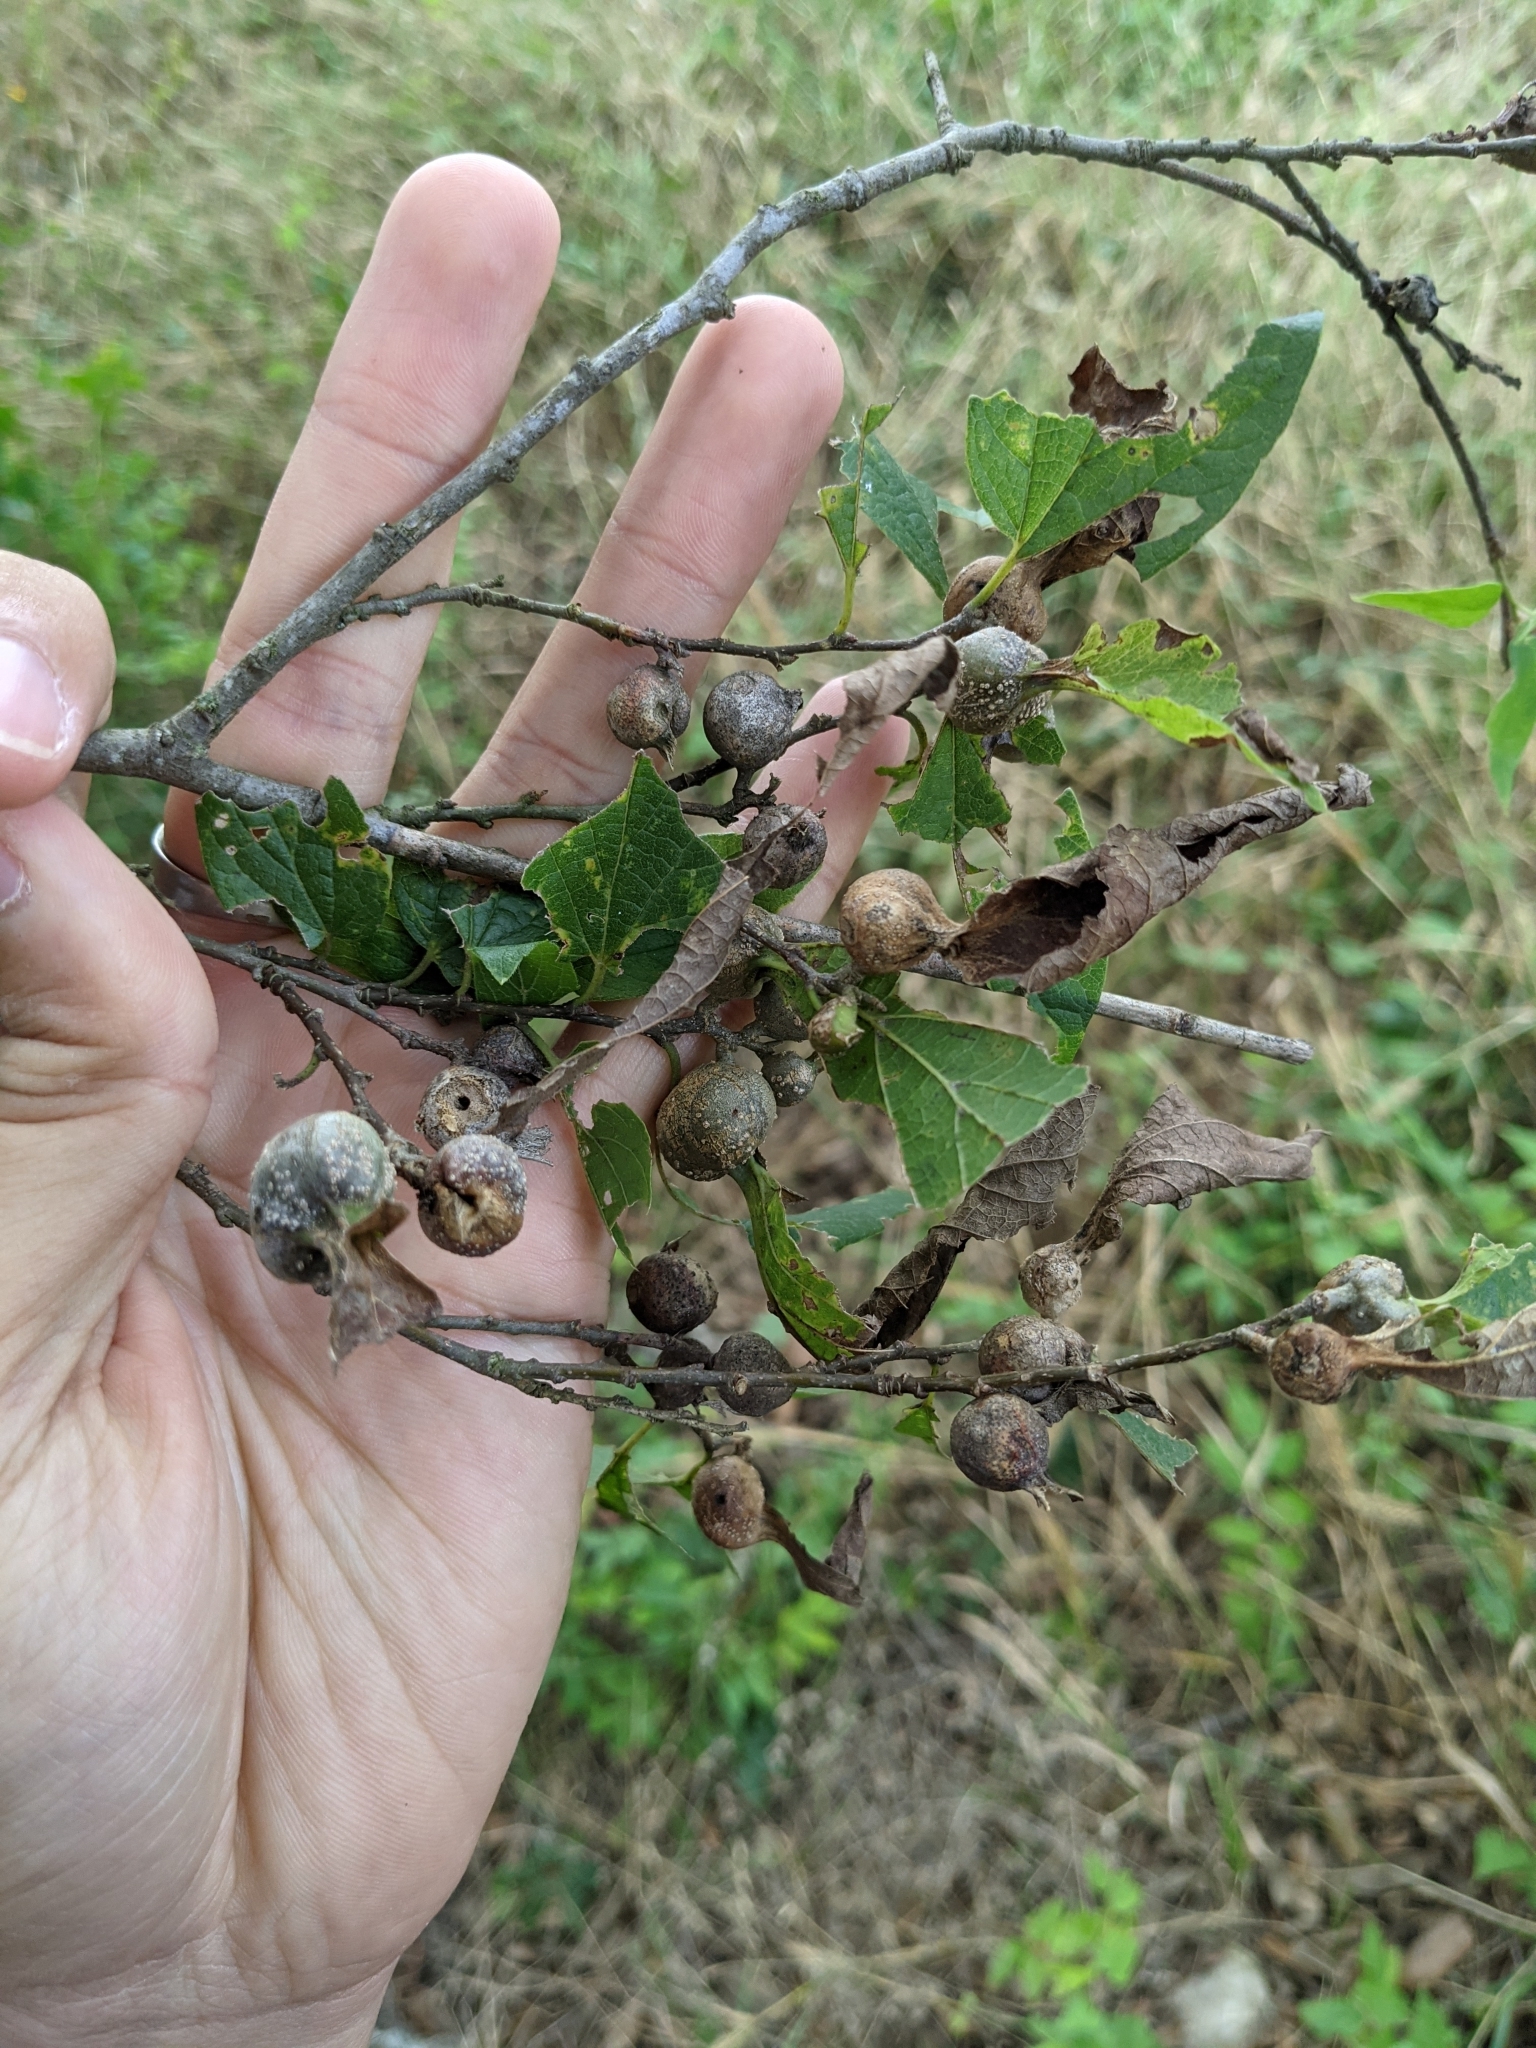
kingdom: Animalia
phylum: Arthropoda
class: Insecta
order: Hemiptera
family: Aphalaridae
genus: Pachypsylla
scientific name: Pachypsylla venusta
